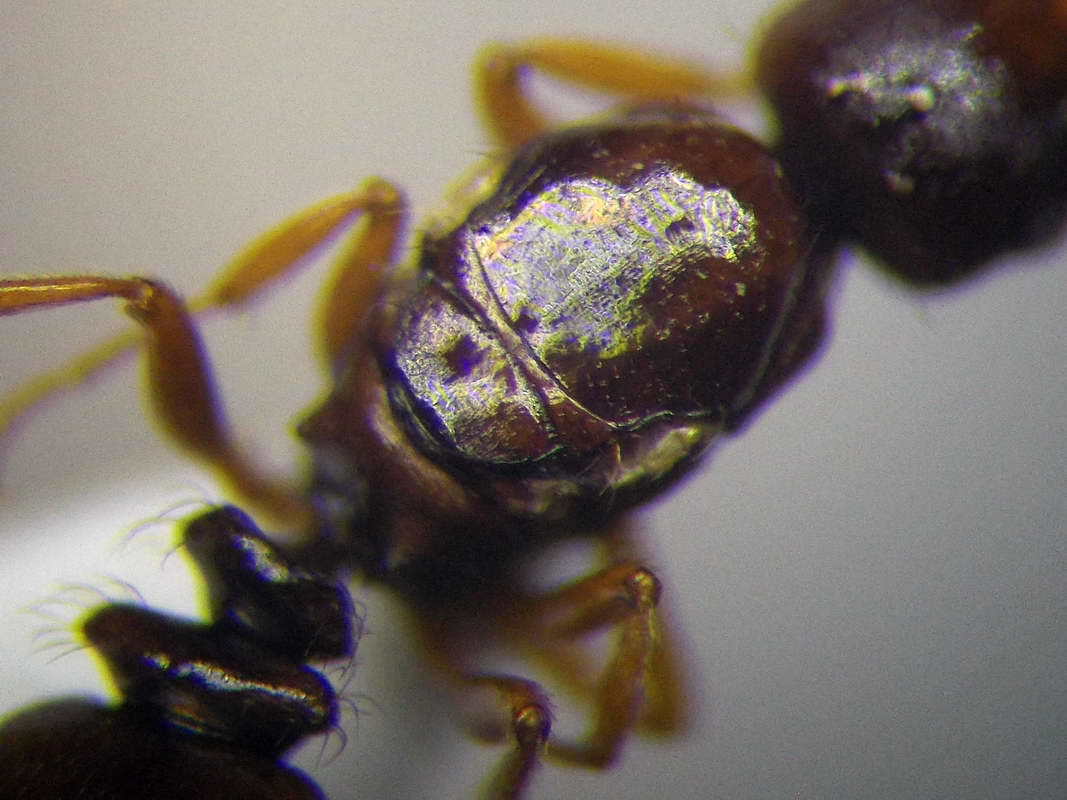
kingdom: Animalia
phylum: Arthropoda
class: Insecta
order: Hymenoptera
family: Formicidae
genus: Tetramorium
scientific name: Tetramorium ferox
